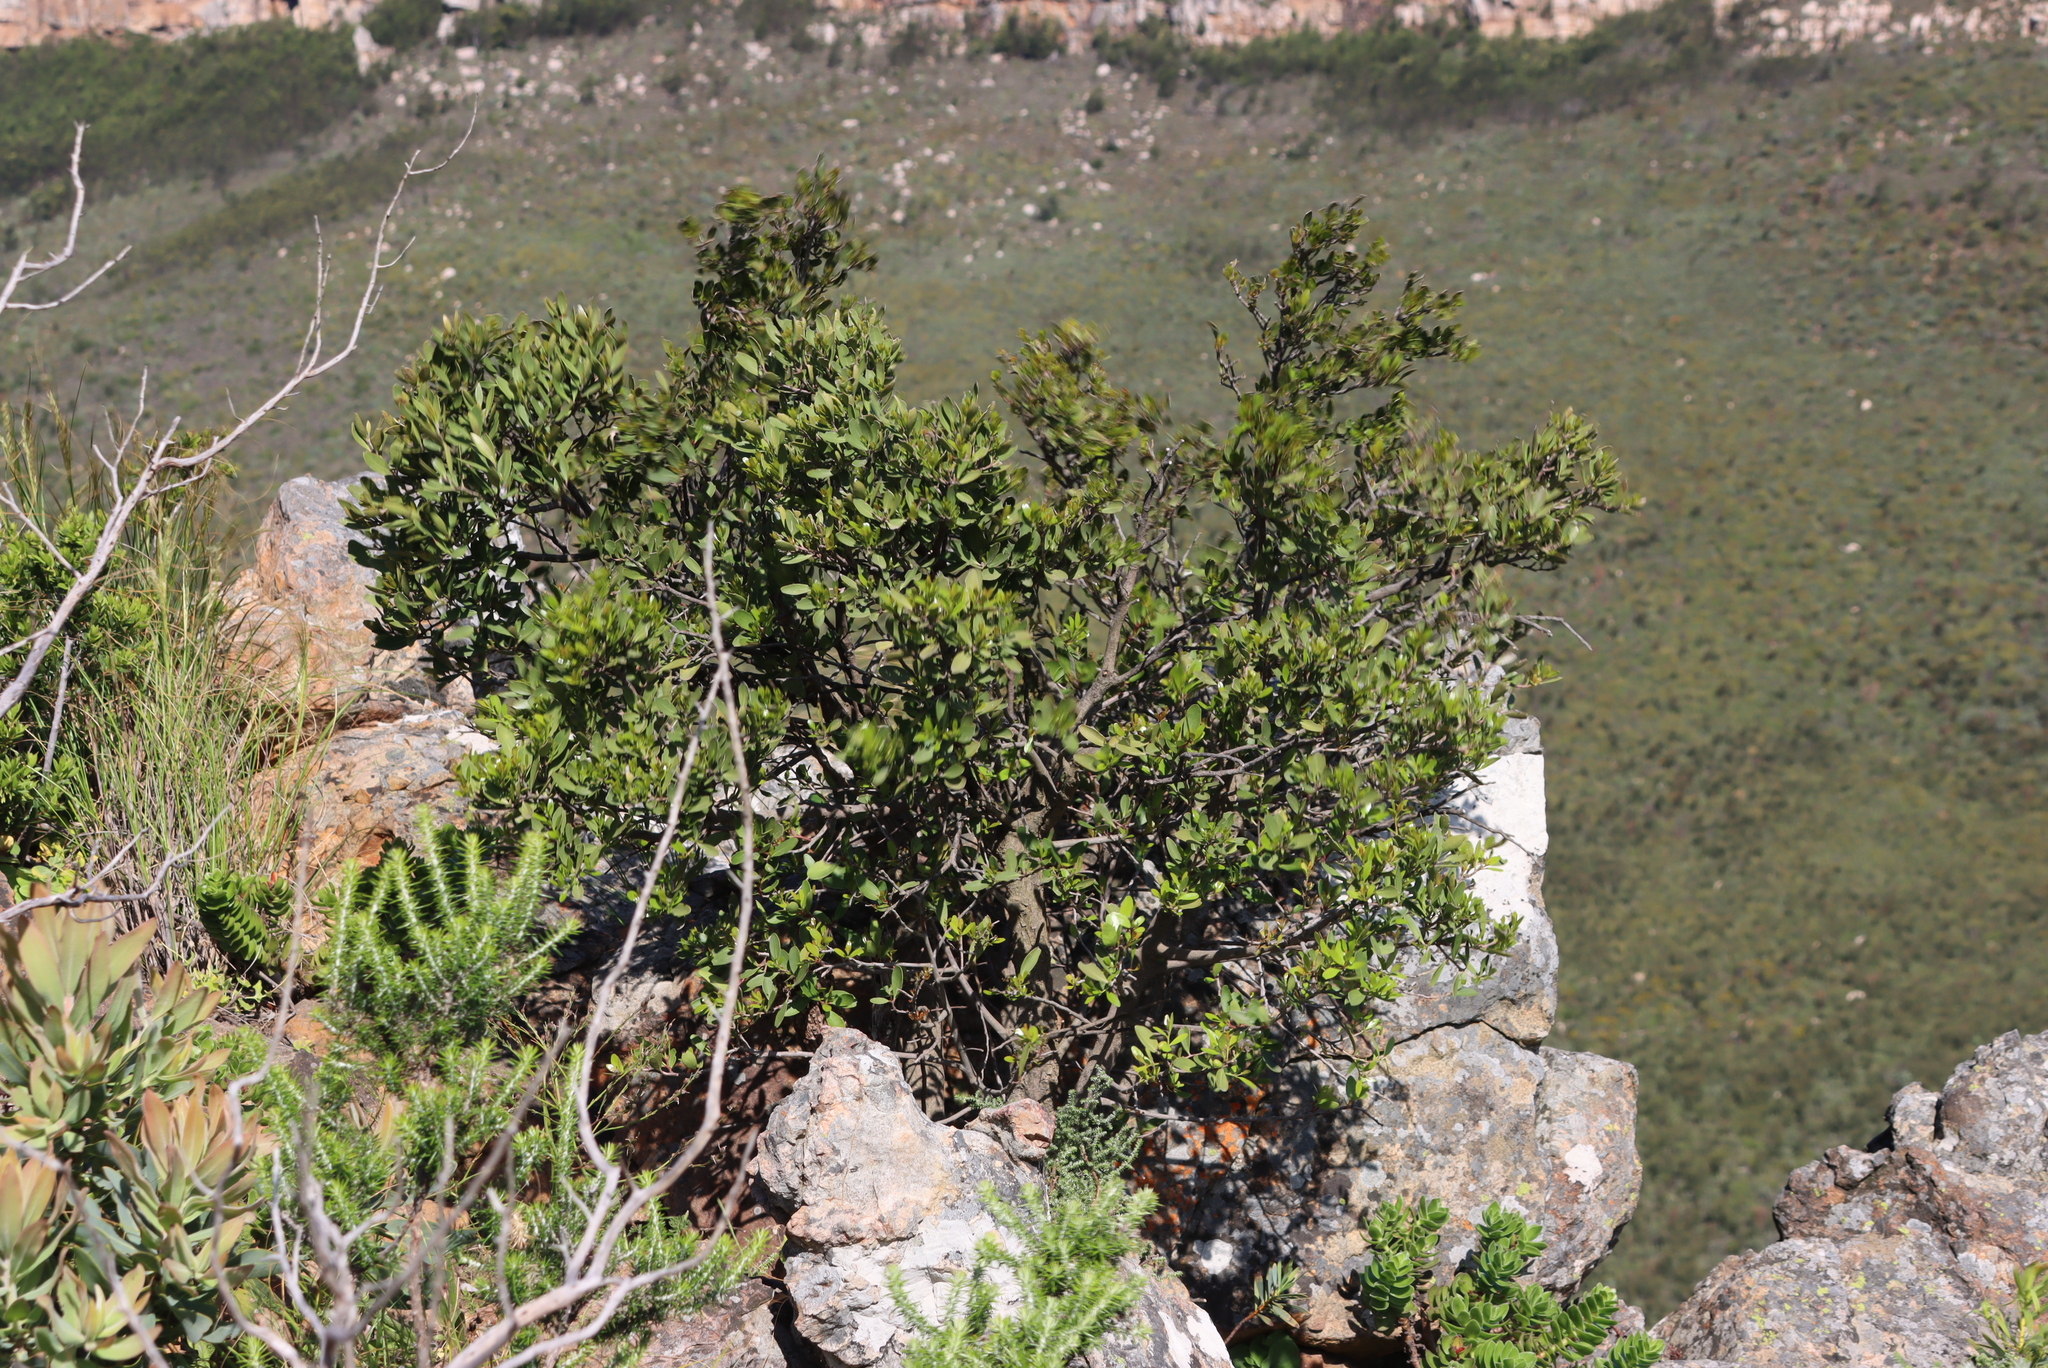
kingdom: Plantae
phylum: Tracheophyta
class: Magnoliopsida
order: Celastrales
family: Celastraceae
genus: Gymnosporia
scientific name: Gymnosporia laurina
